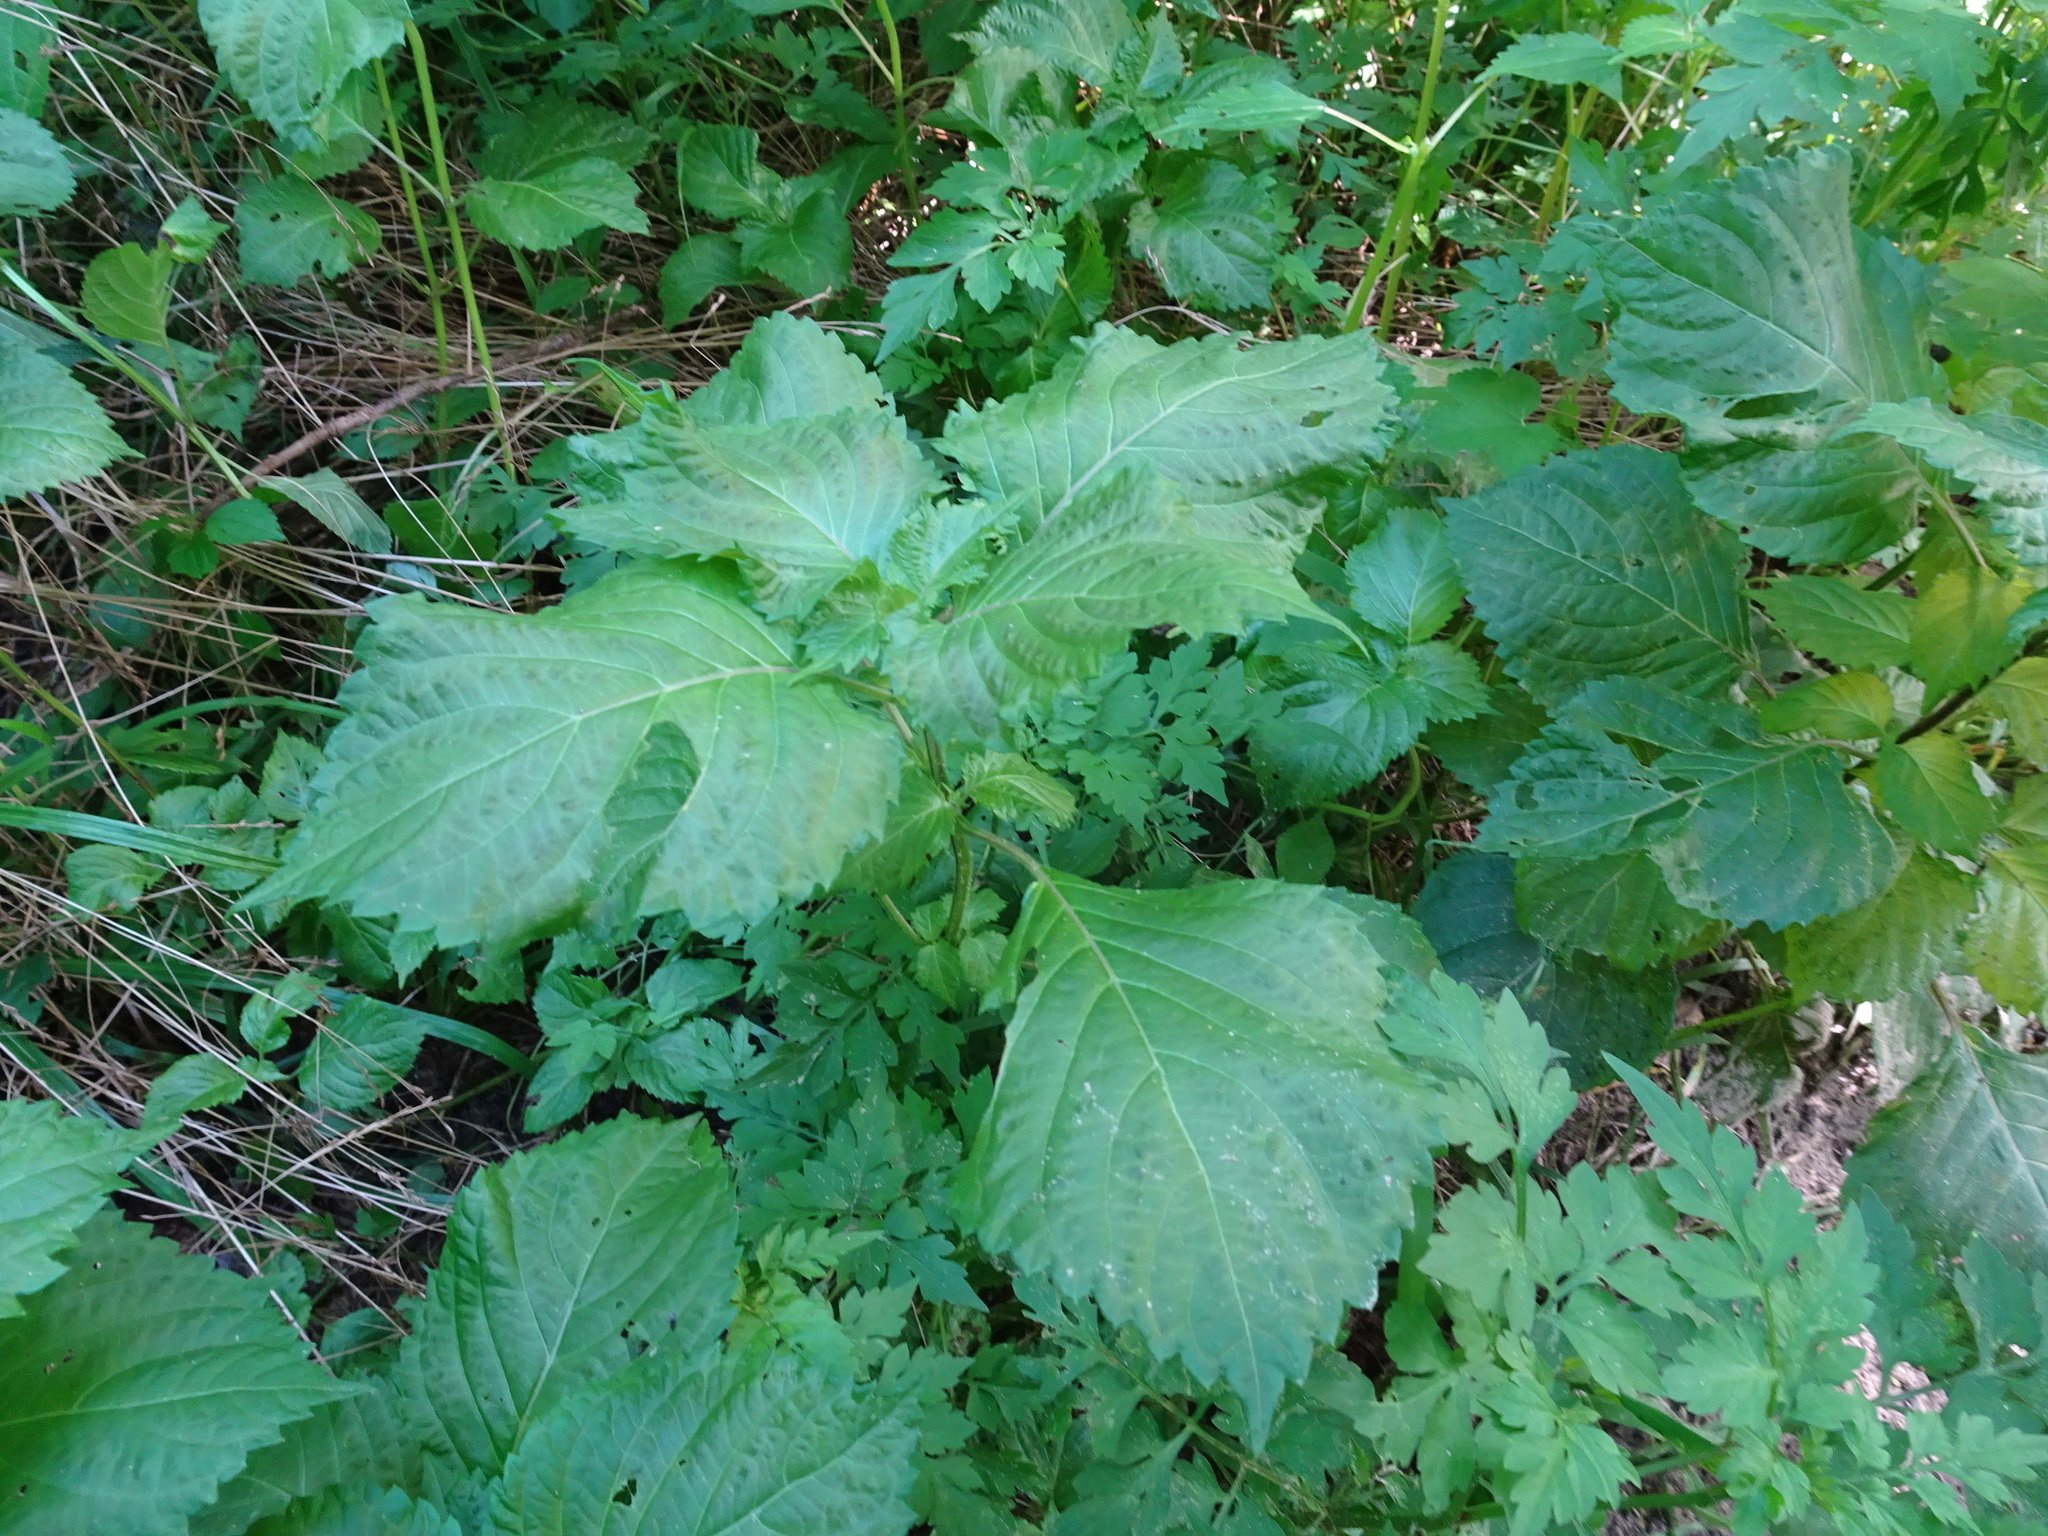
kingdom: Plantae
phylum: Tracheophyta
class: Magnoliopsida
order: Lamiales
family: Lamiaceae
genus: Perilla
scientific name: Perilla frutescens
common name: Perilla
